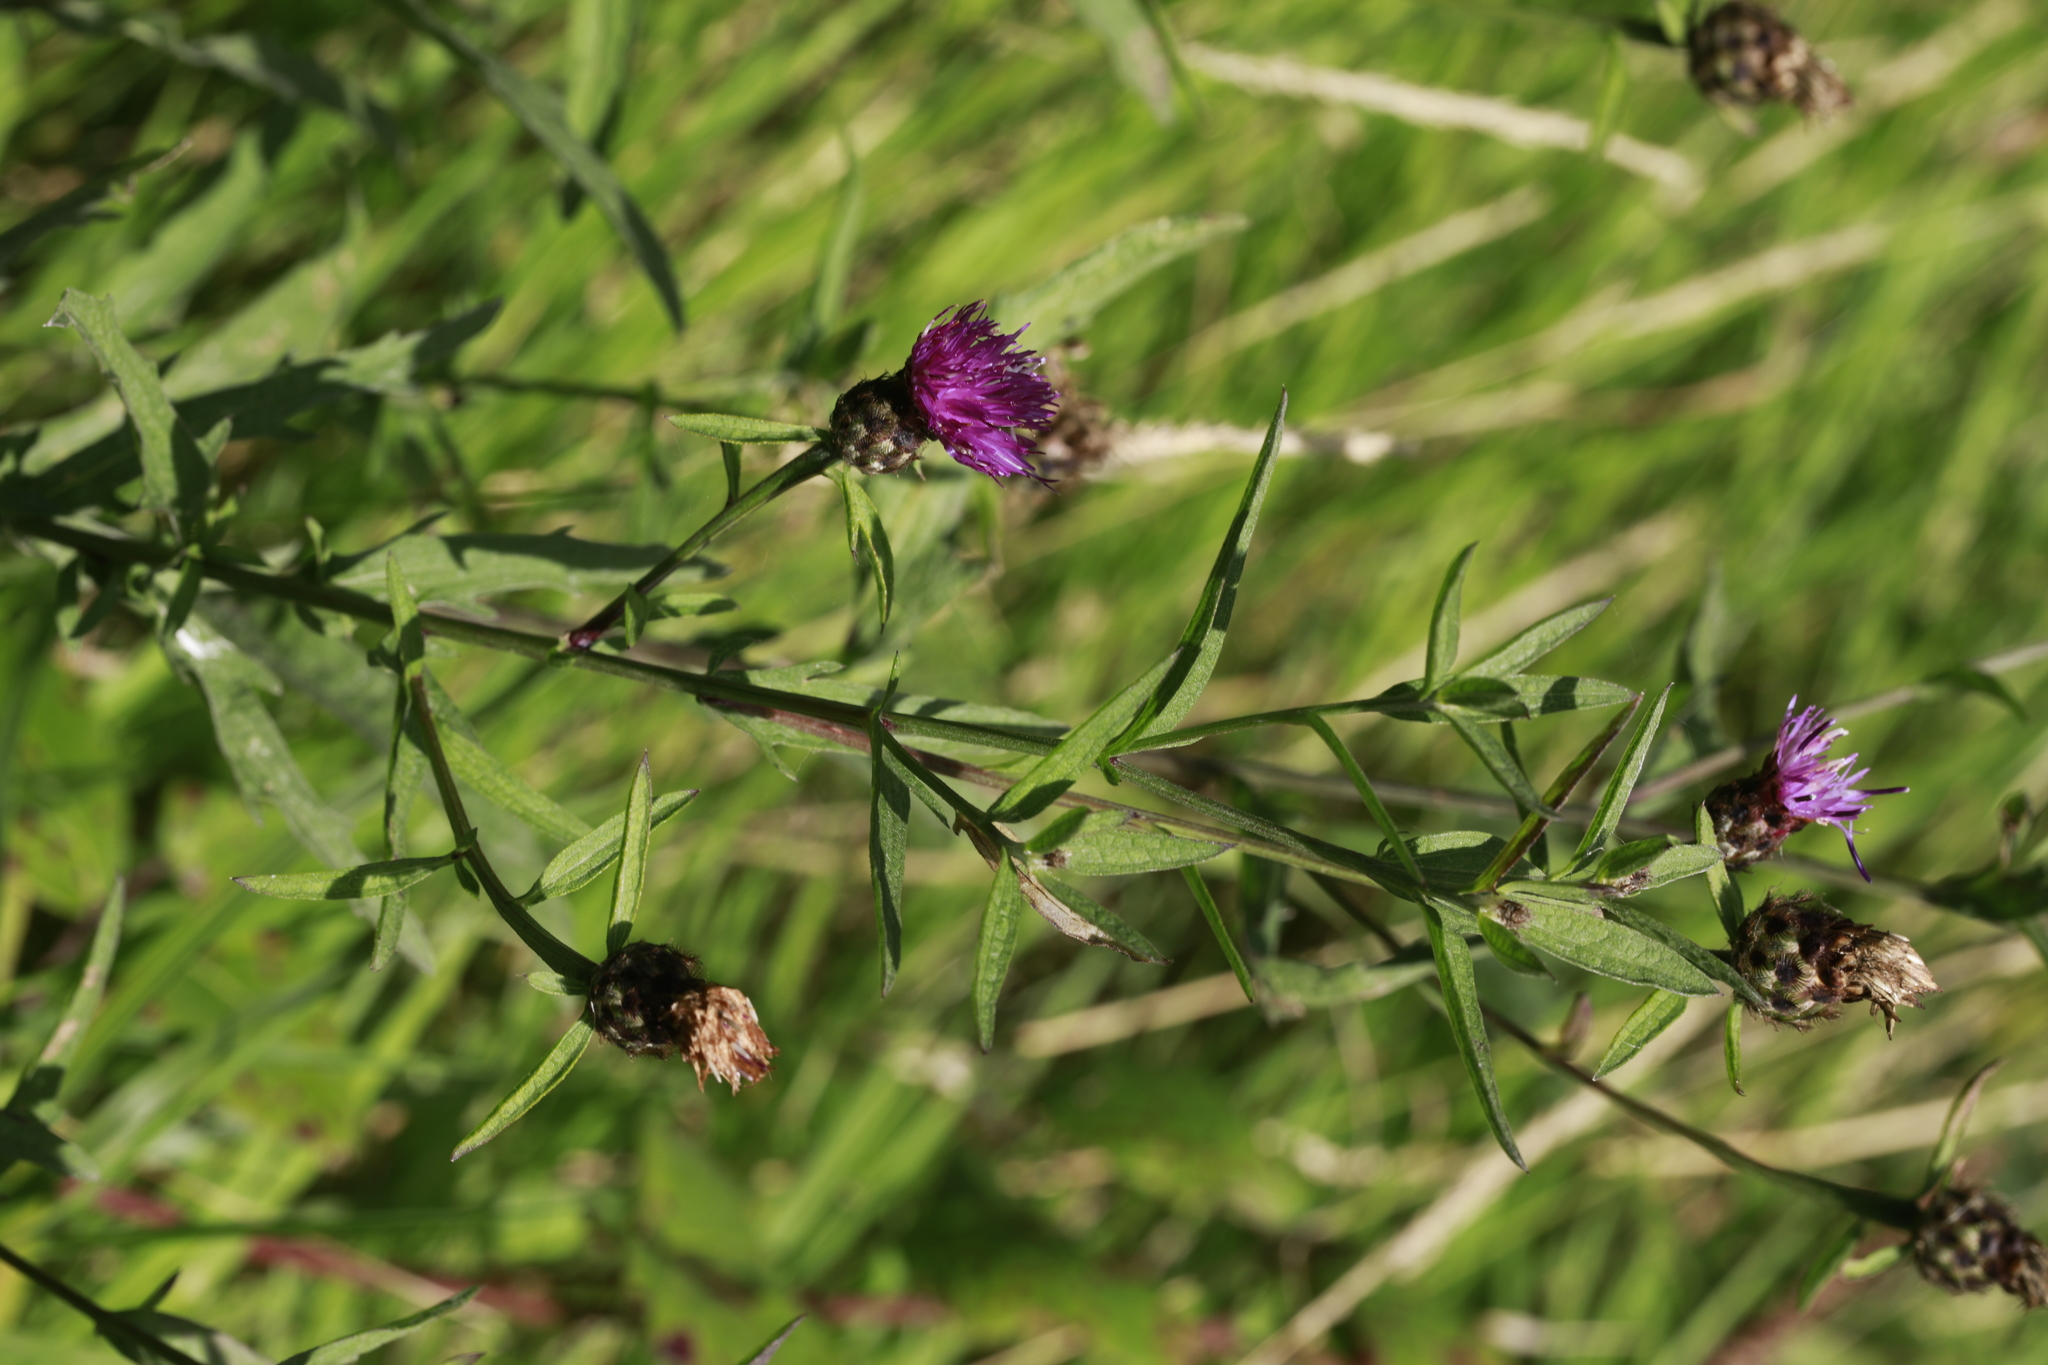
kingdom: Plantae
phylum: Tracheophyta
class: Magnoliopsida
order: Asterales
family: Asteraceae
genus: Centaurea
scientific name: Centaurea nigra
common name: Lesser knapweed
